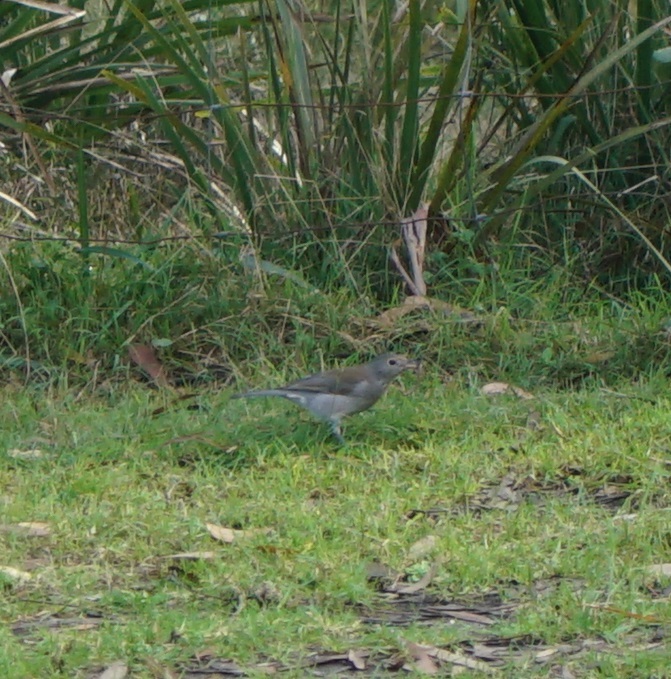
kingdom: Animalia
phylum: Chordata
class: Aves
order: Passeriformes
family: Pachycephalidae
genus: Colluricincla
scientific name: Colluricincla harmonica
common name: Grey shrikethrush
